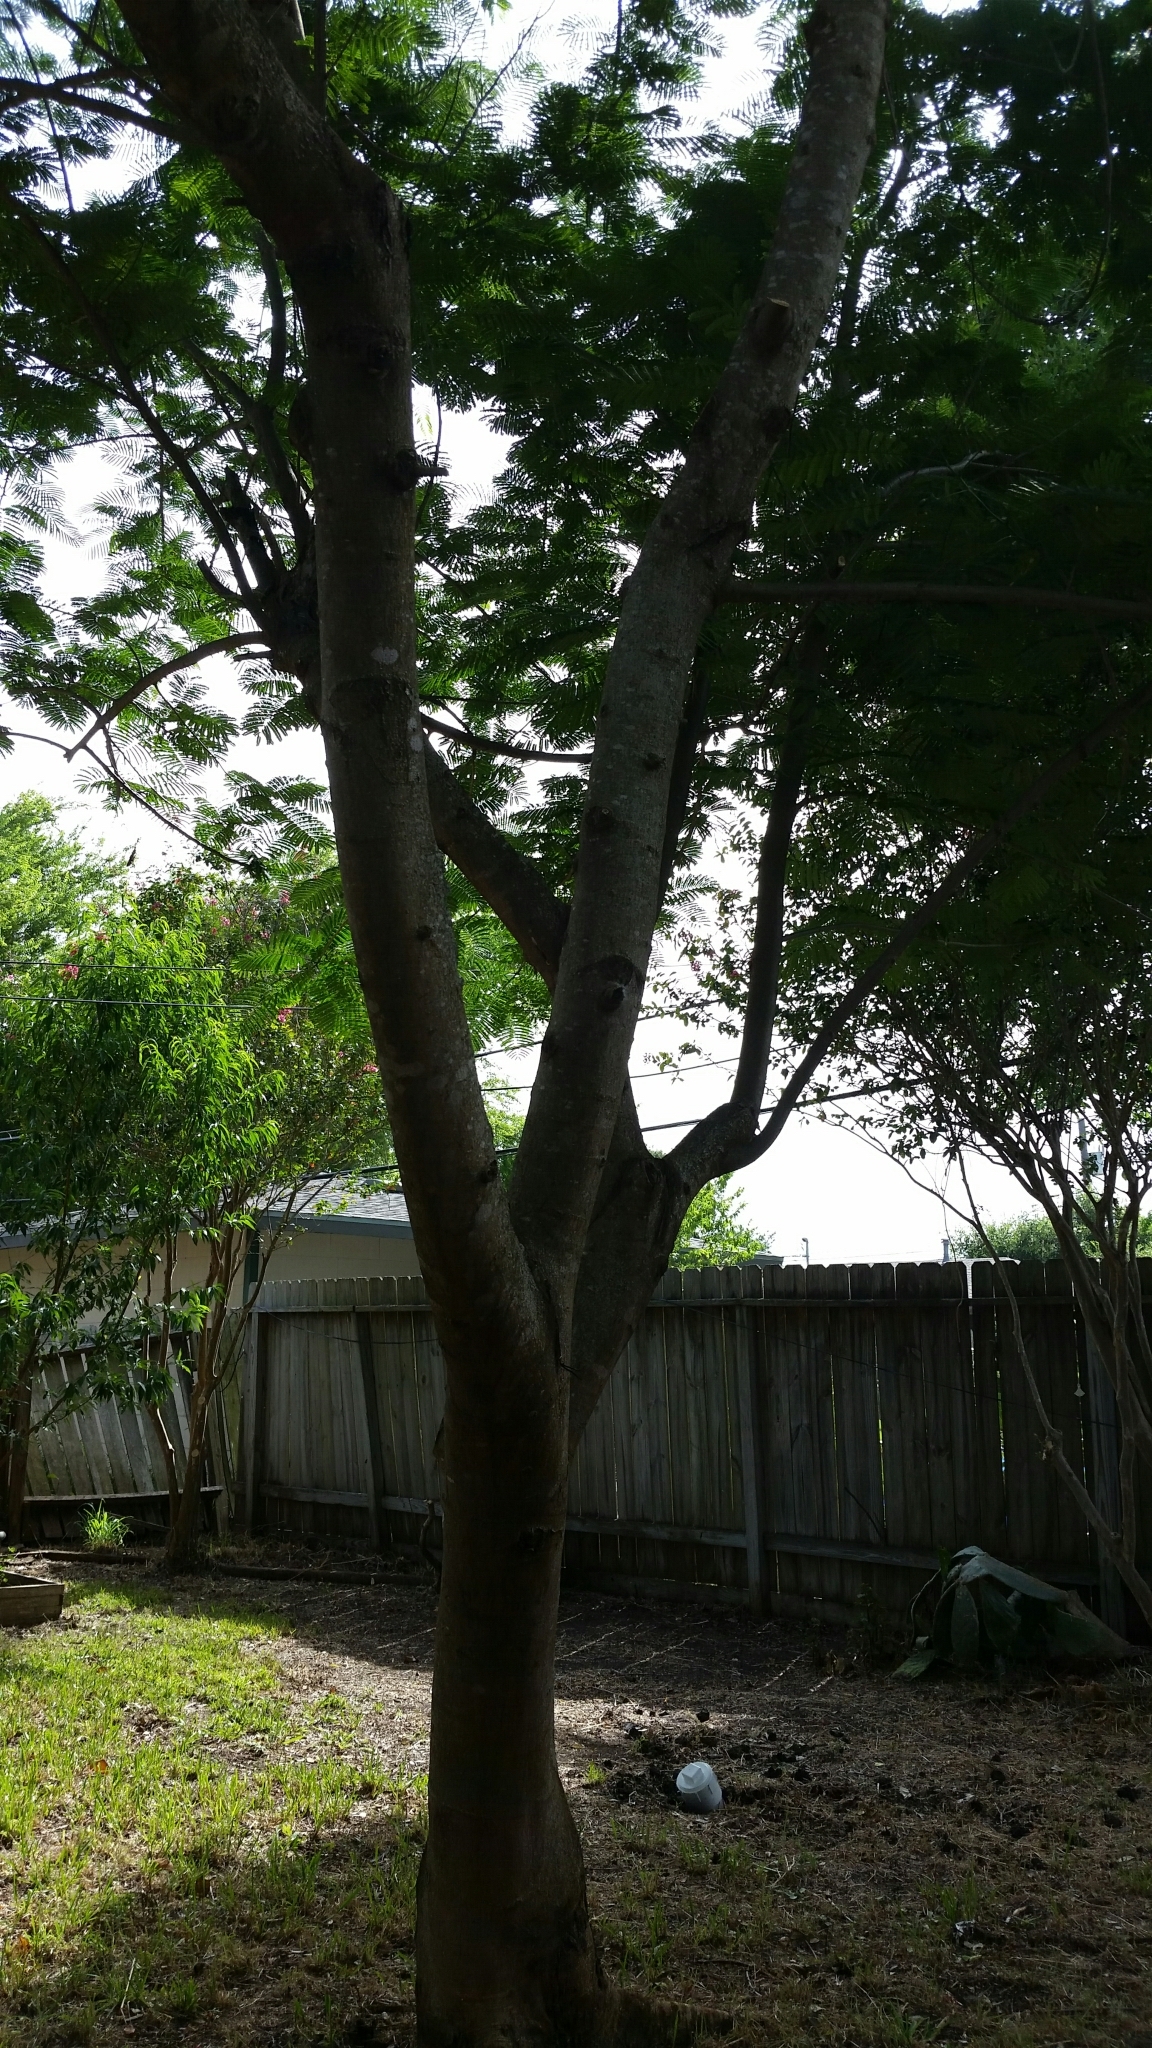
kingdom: Plantae
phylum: Tracheophyta
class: Magnoliopsida
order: Fabales
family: Fabaceae
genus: Delonix
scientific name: Delonix regia
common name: Royal poinciana
